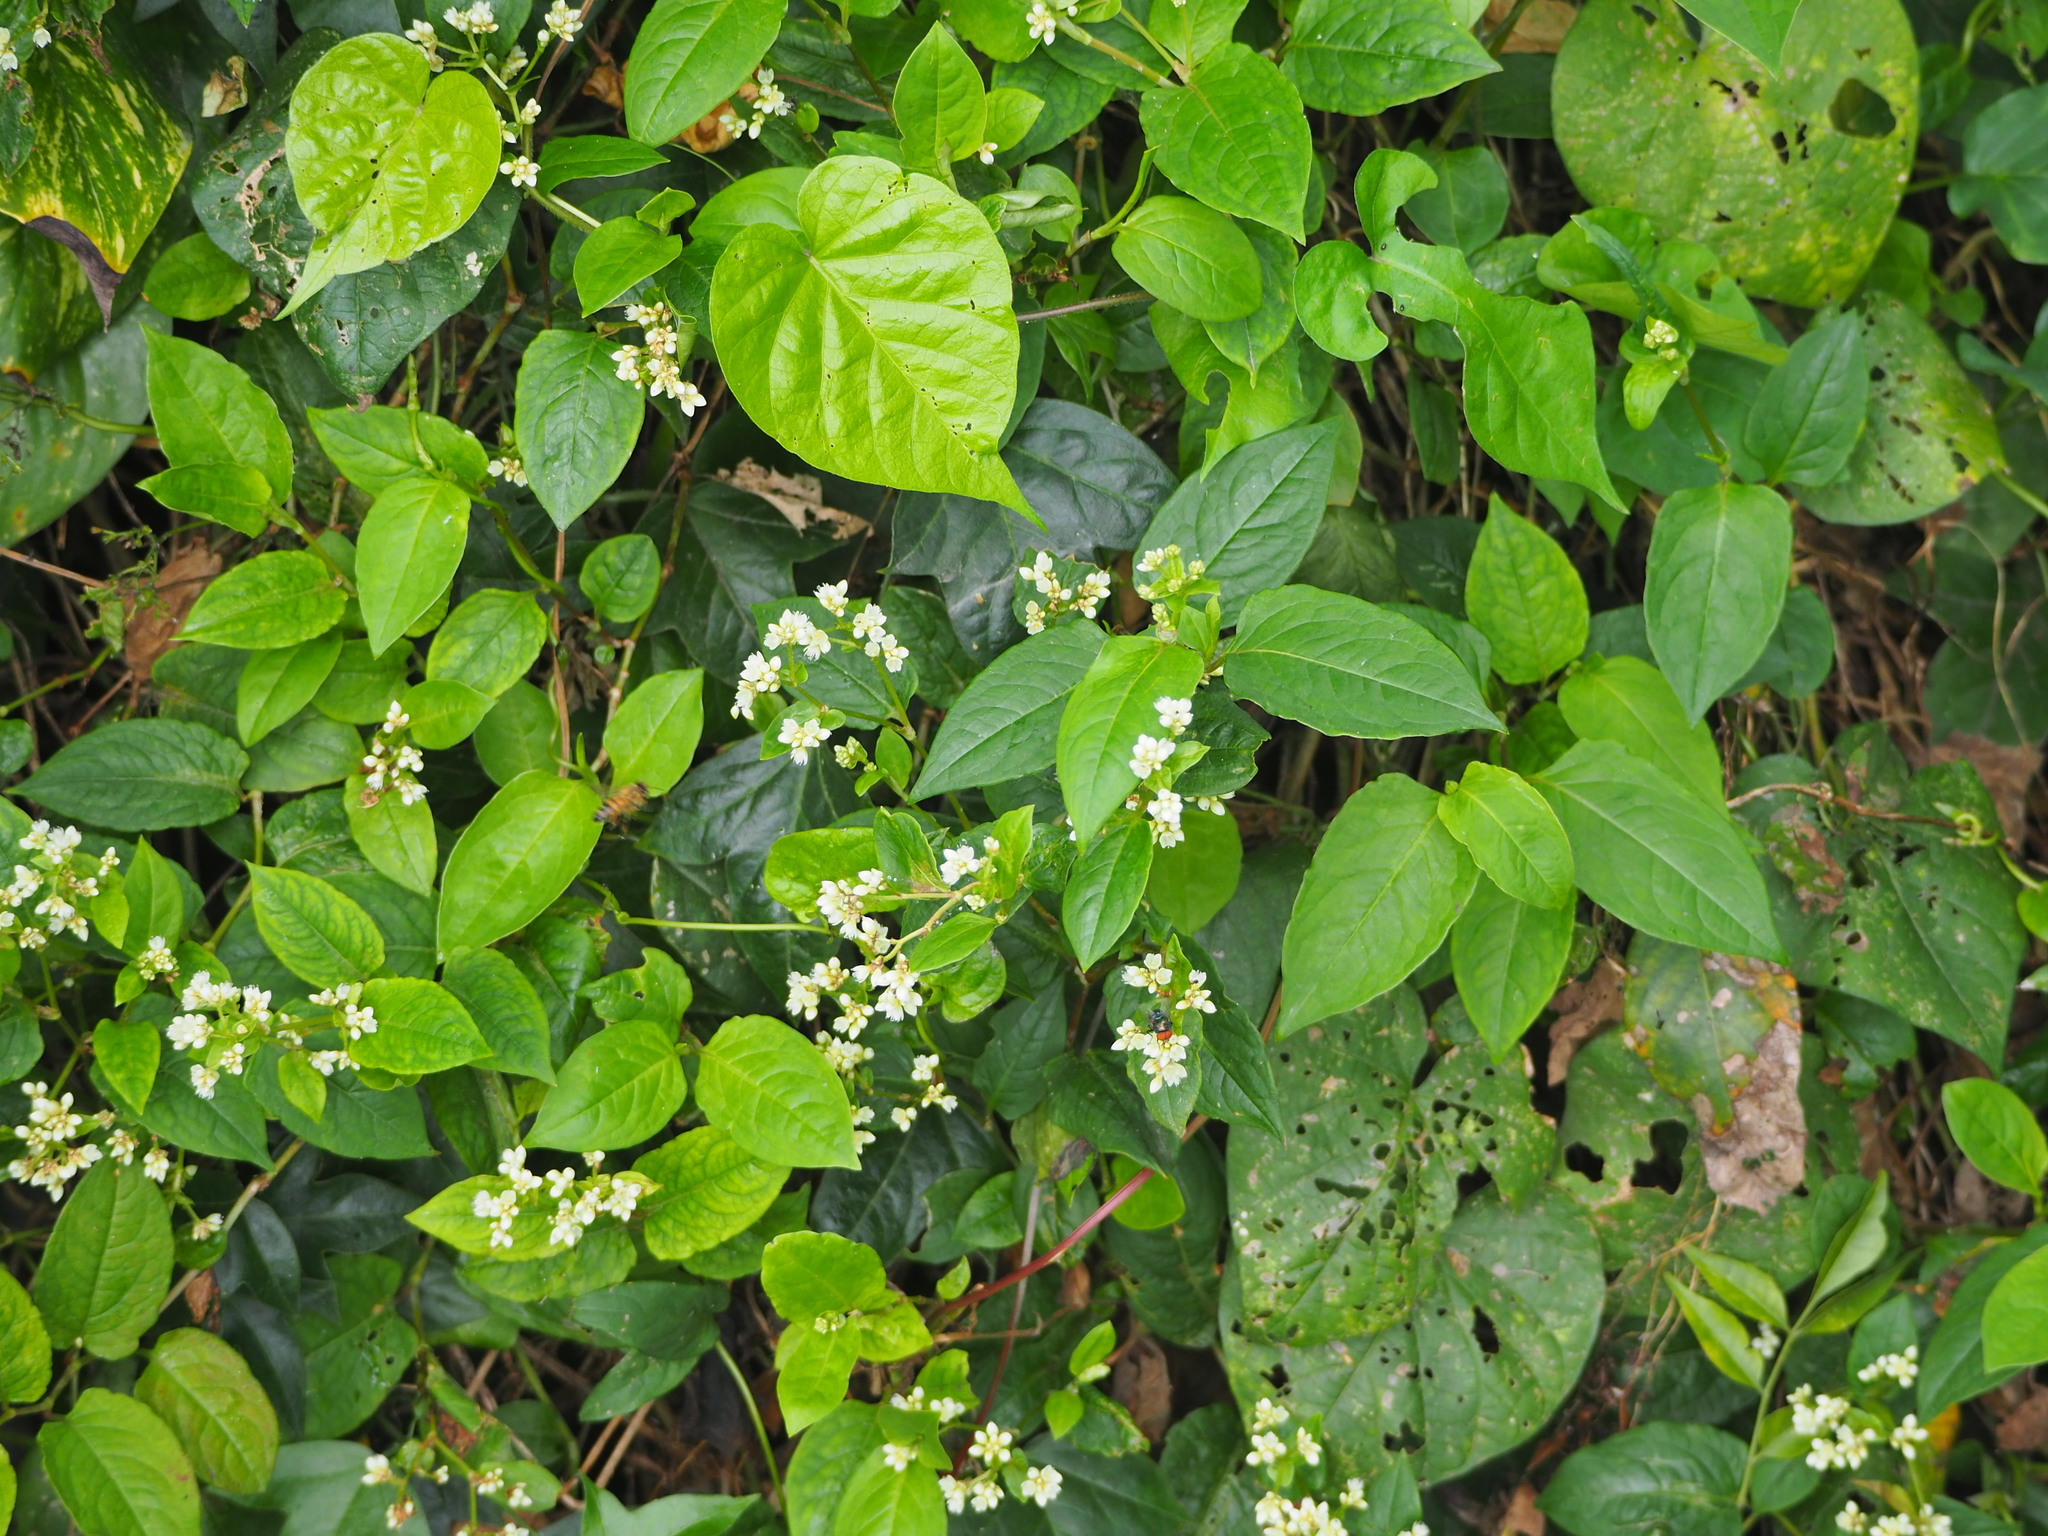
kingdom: Plantae
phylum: Tracheophyta
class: Magnoliopsida
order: Caryophyllales
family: Polygonaceae
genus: Persicaria
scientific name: Persicaria chinensis
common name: Chinese knotweed
